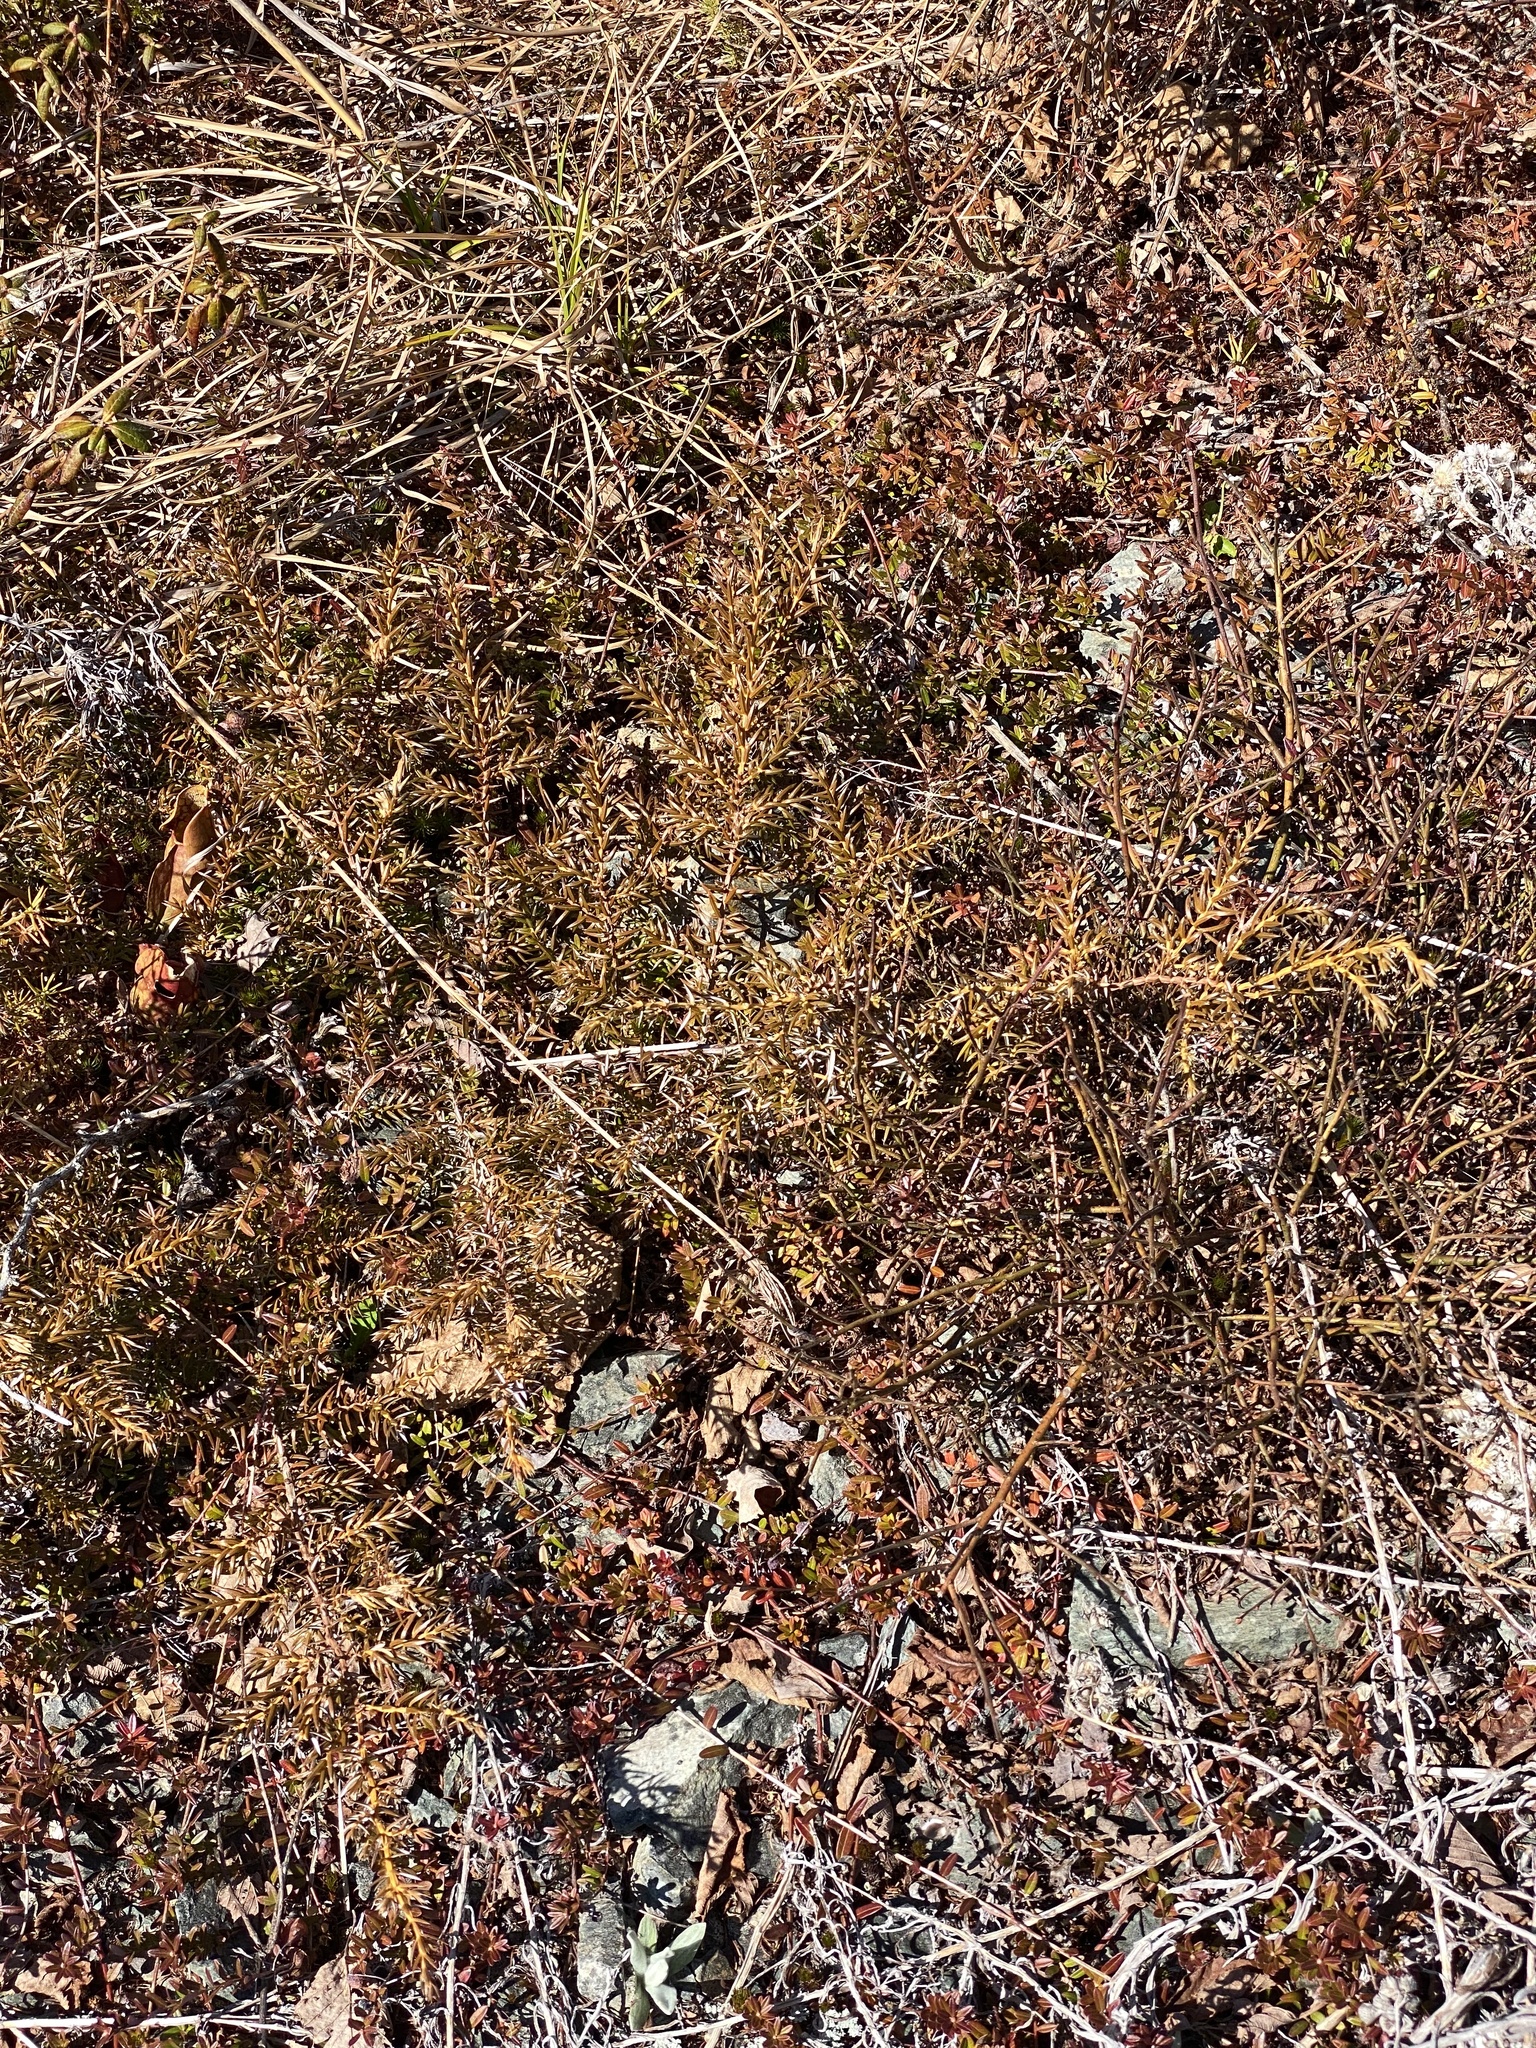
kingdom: Plantae
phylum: Tracheophyta
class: Pinopsida
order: Pinales
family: Cupressaceae
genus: Juniperus
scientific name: Juniperus communis
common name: Common juniper
